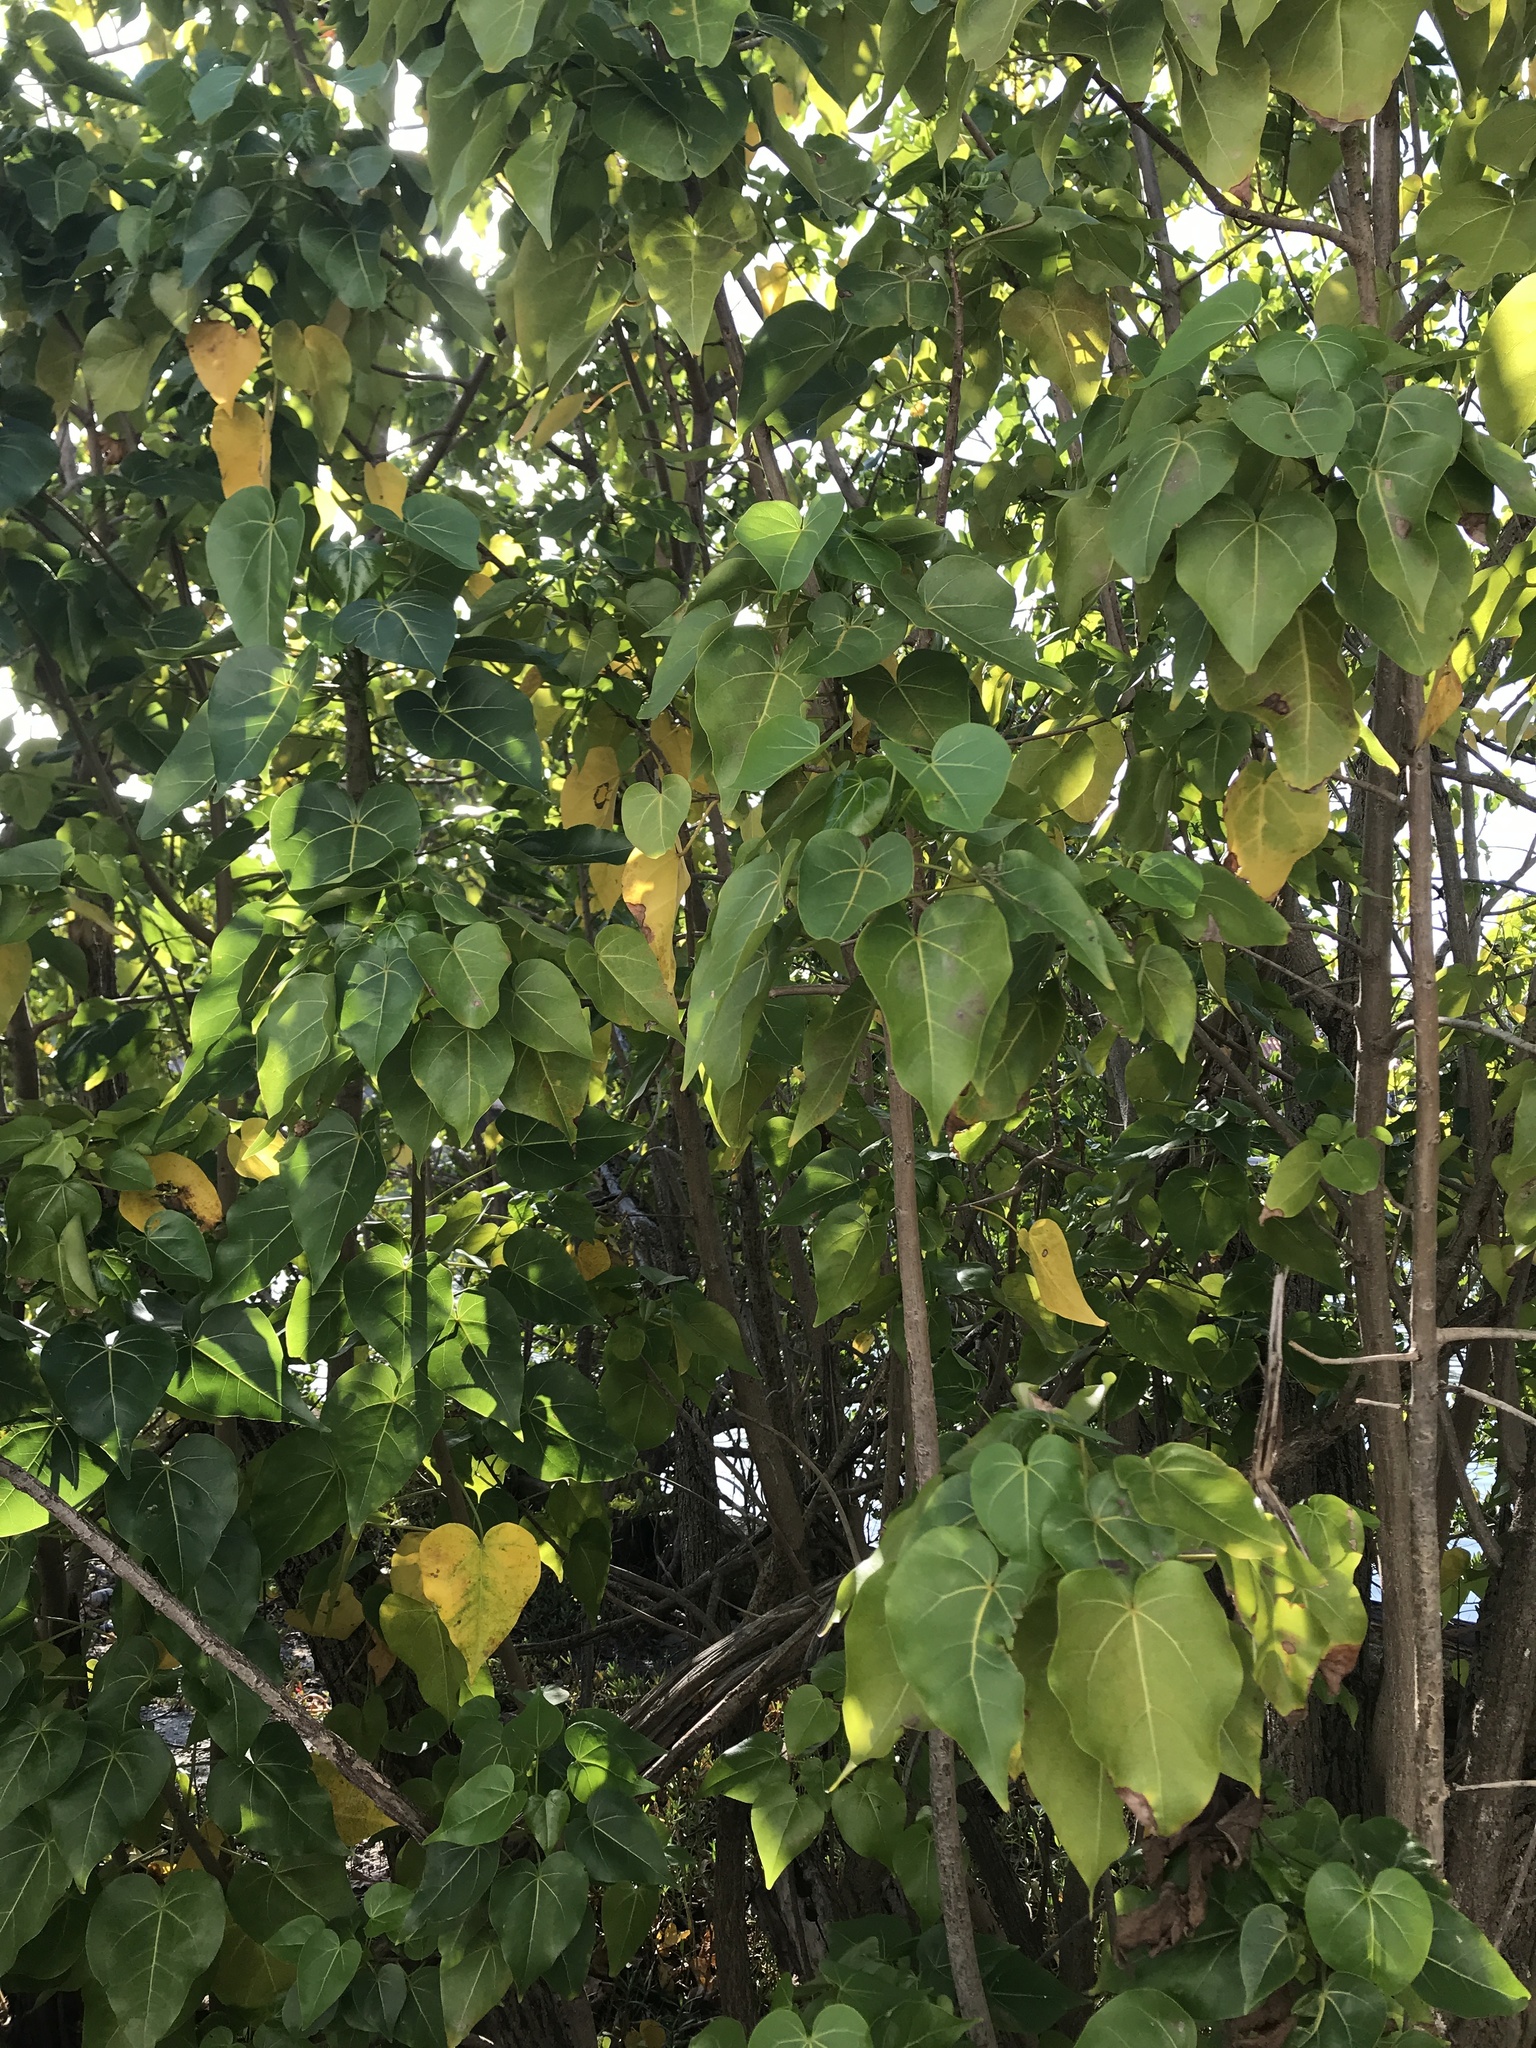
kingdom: Plantae
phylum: Tracheophyta
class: Magnoliopsida
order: Malvales
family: Malvaceae
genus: Thespesia
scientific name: Thespesia populnea
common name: Seaside mahoe
